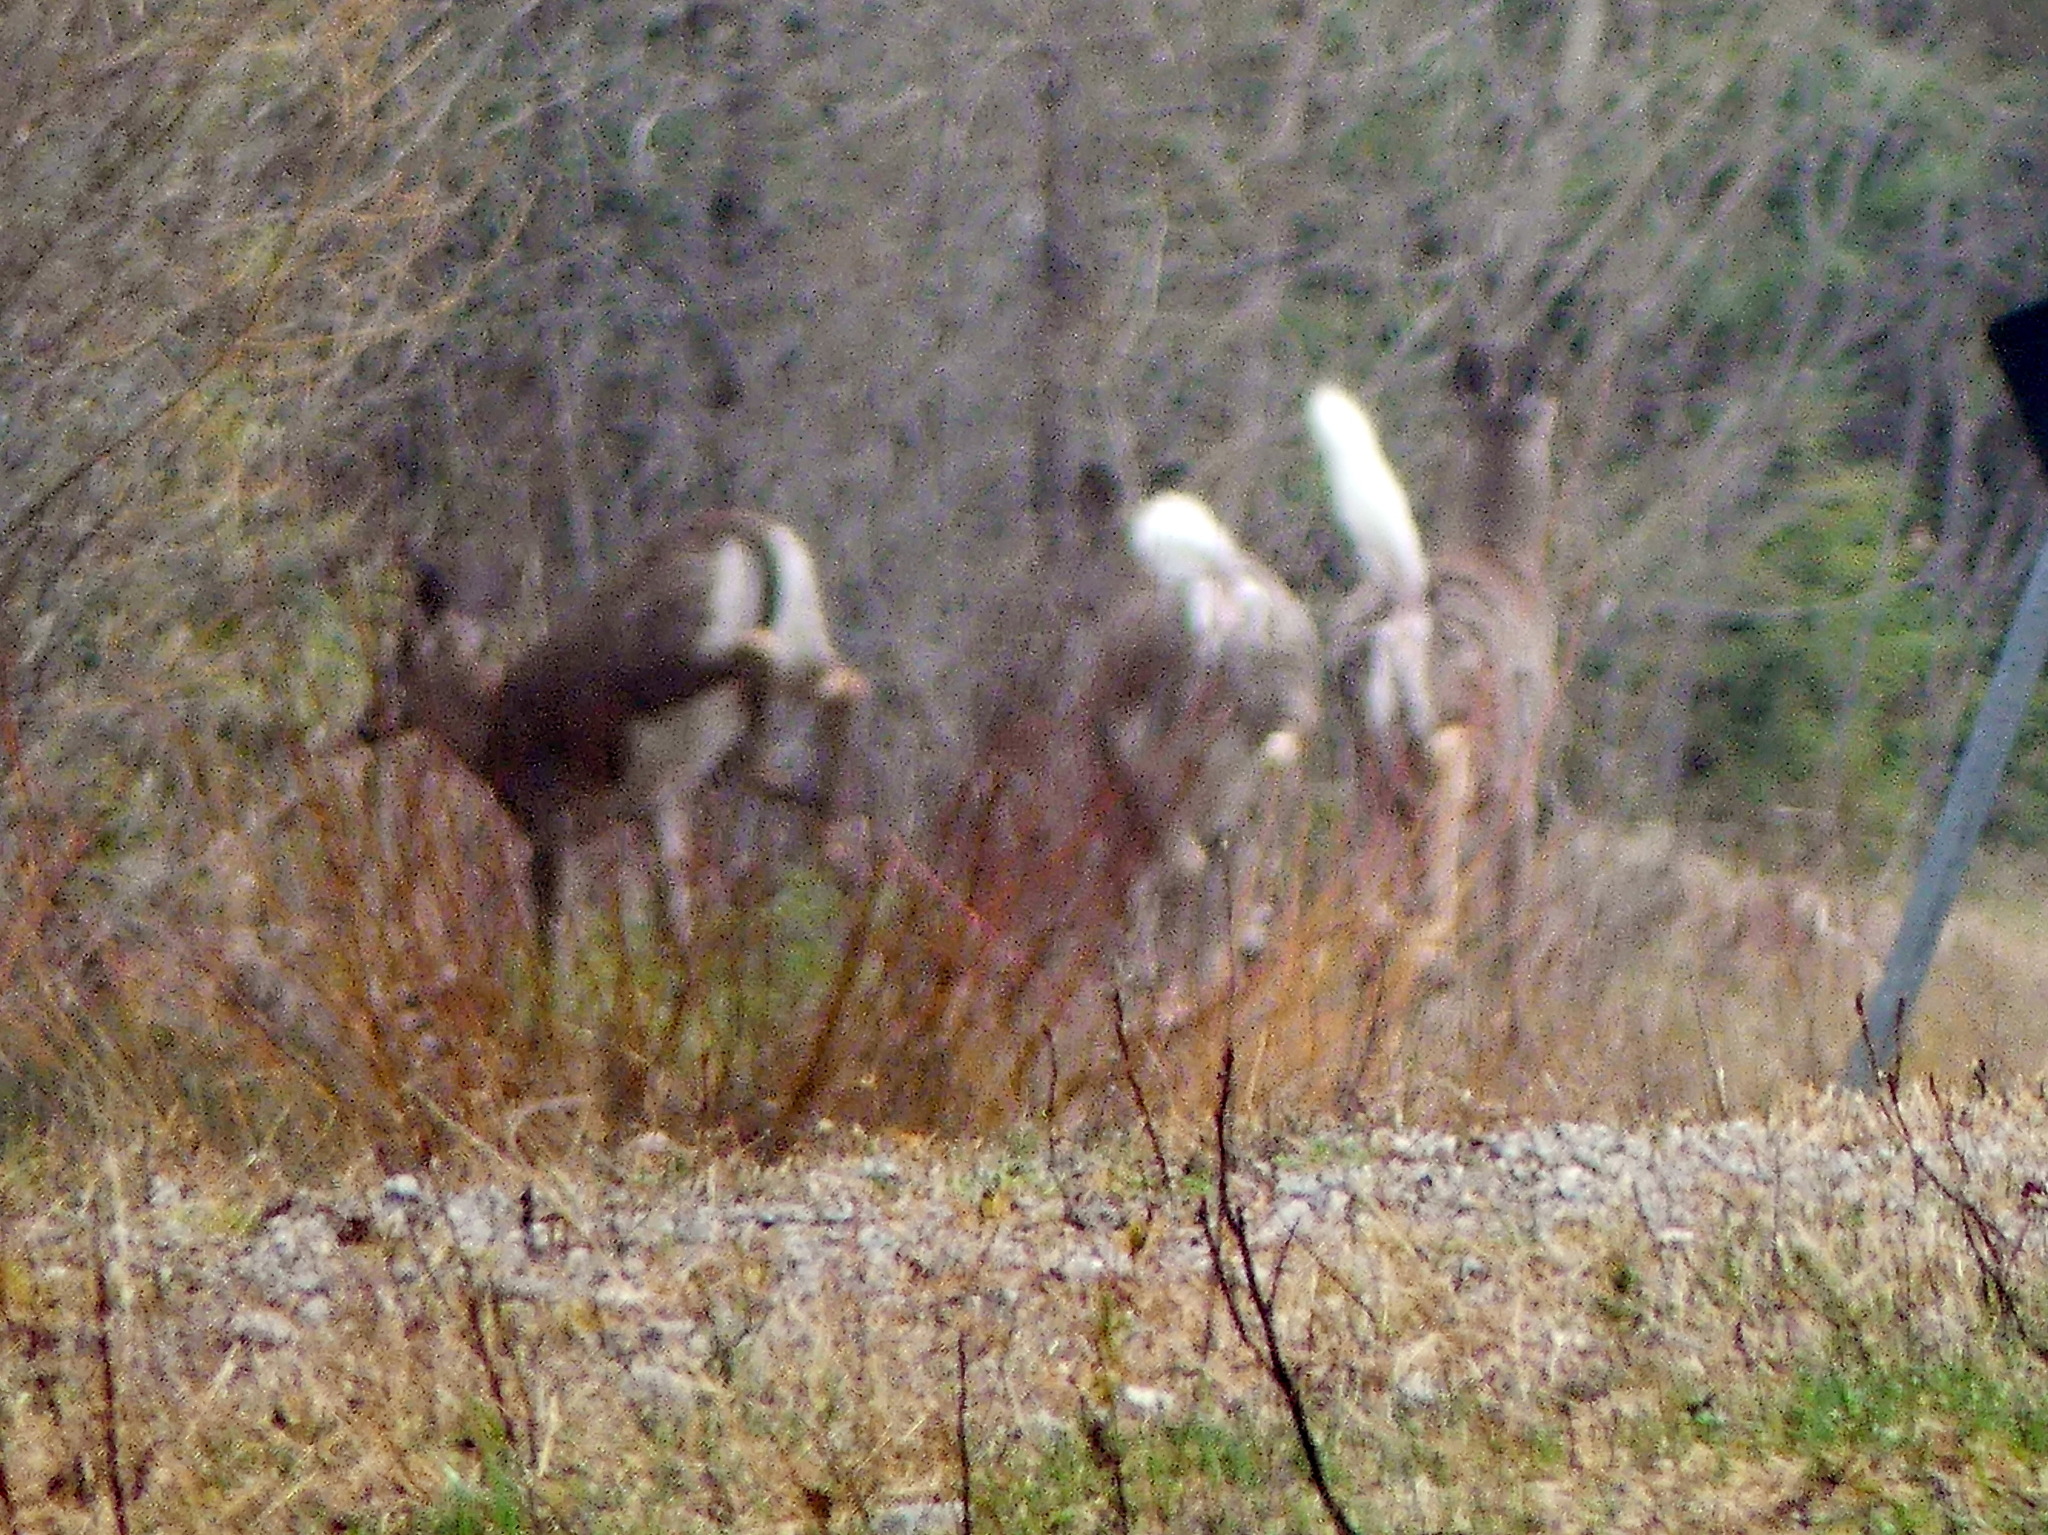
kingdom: Animalia
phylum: Chordata
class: Mammalia
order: Artiodactyla
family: Cervidae
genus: Odocoileus
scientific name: Odocoileus virginianus
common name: White-tailed deer
